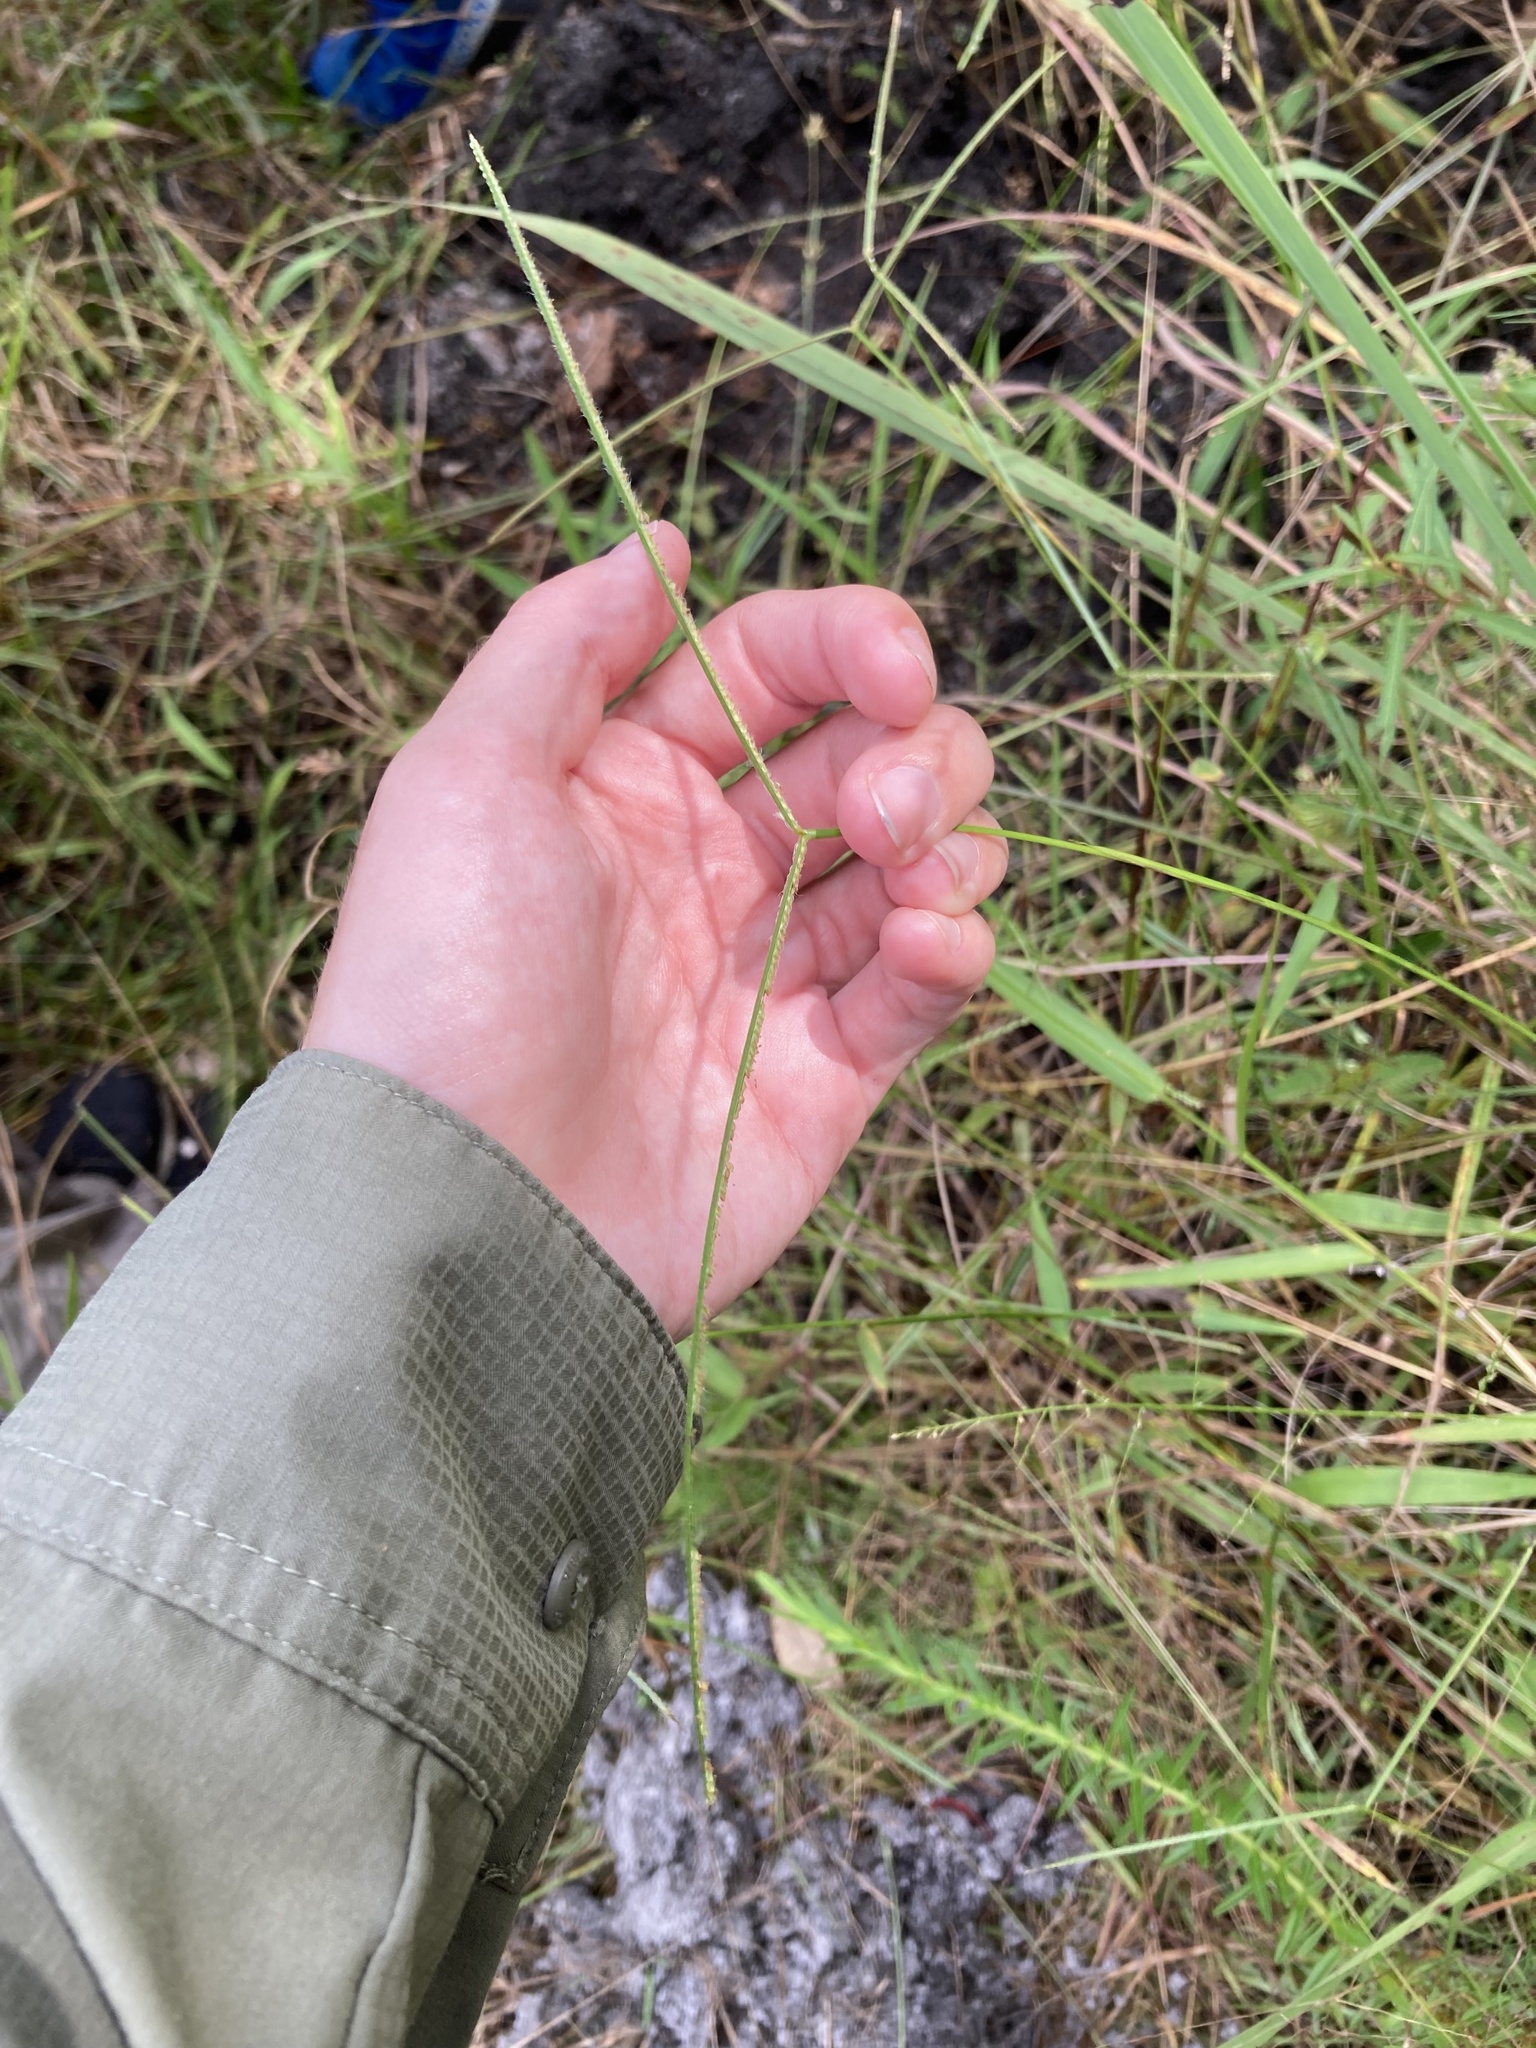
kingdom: Plantae
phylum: Tracheophyta
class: Liliopsida
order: Poales
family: Poaceae
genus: Paspalum
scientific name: Paspalum conjugatum
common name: Hilograss
